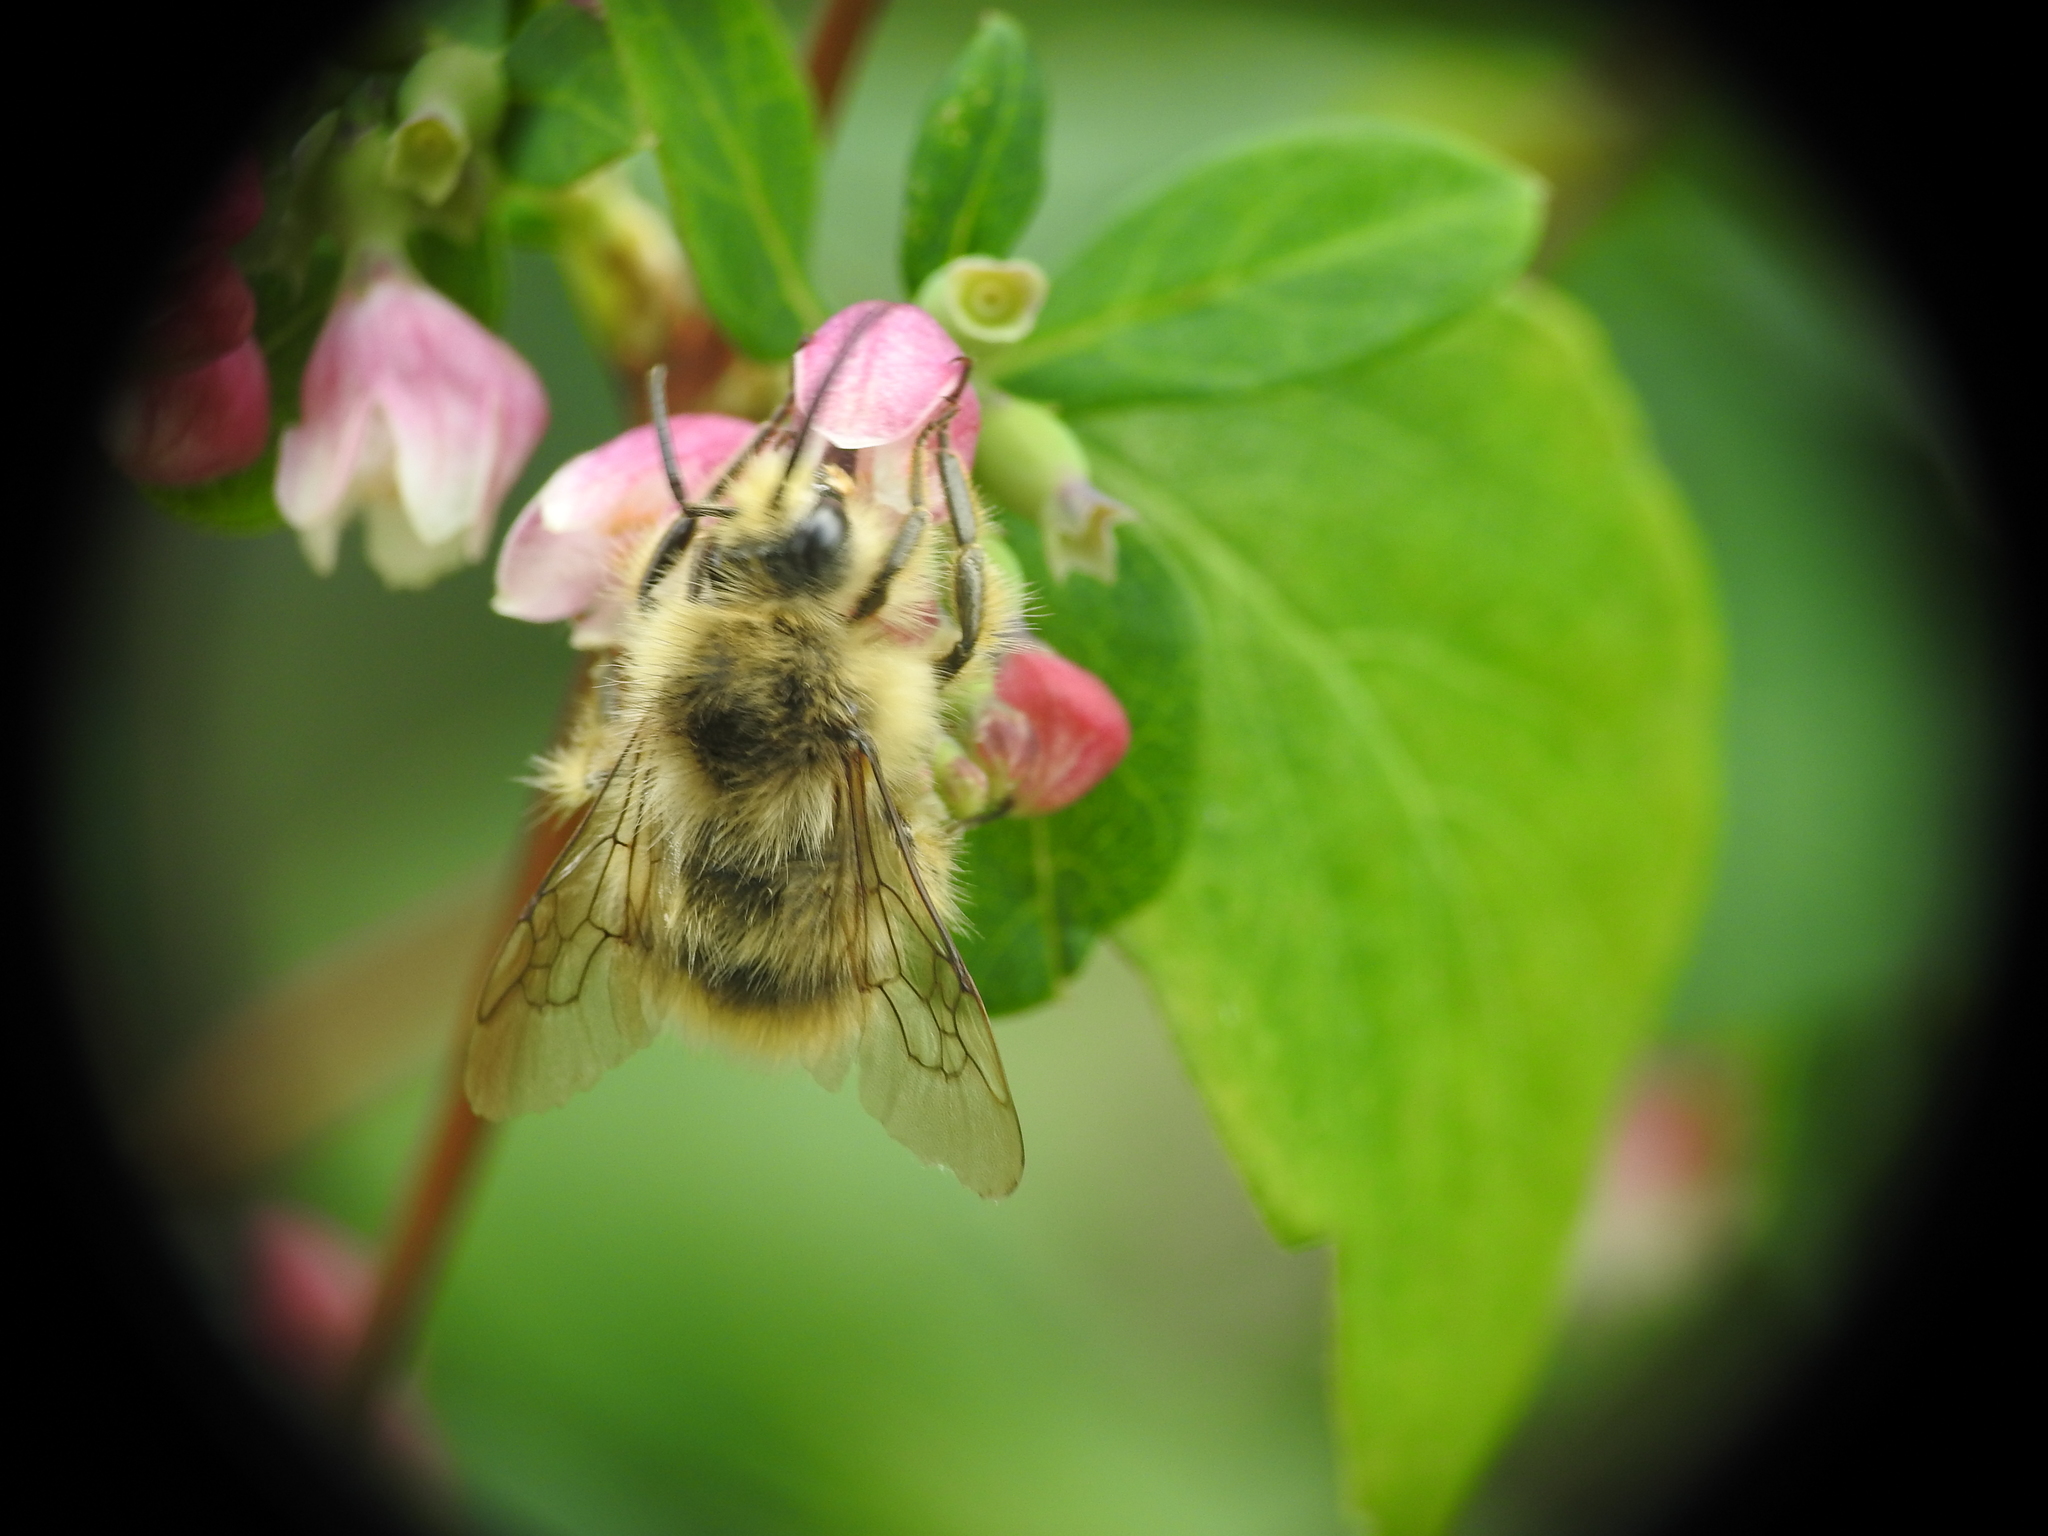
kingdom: Animalia
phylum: Arthropoda
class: Insecta
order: Hymenoptera
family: Apidae
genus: Bombus
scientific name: Bombus mixtus
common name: Fuzzy-horned bumble bee
